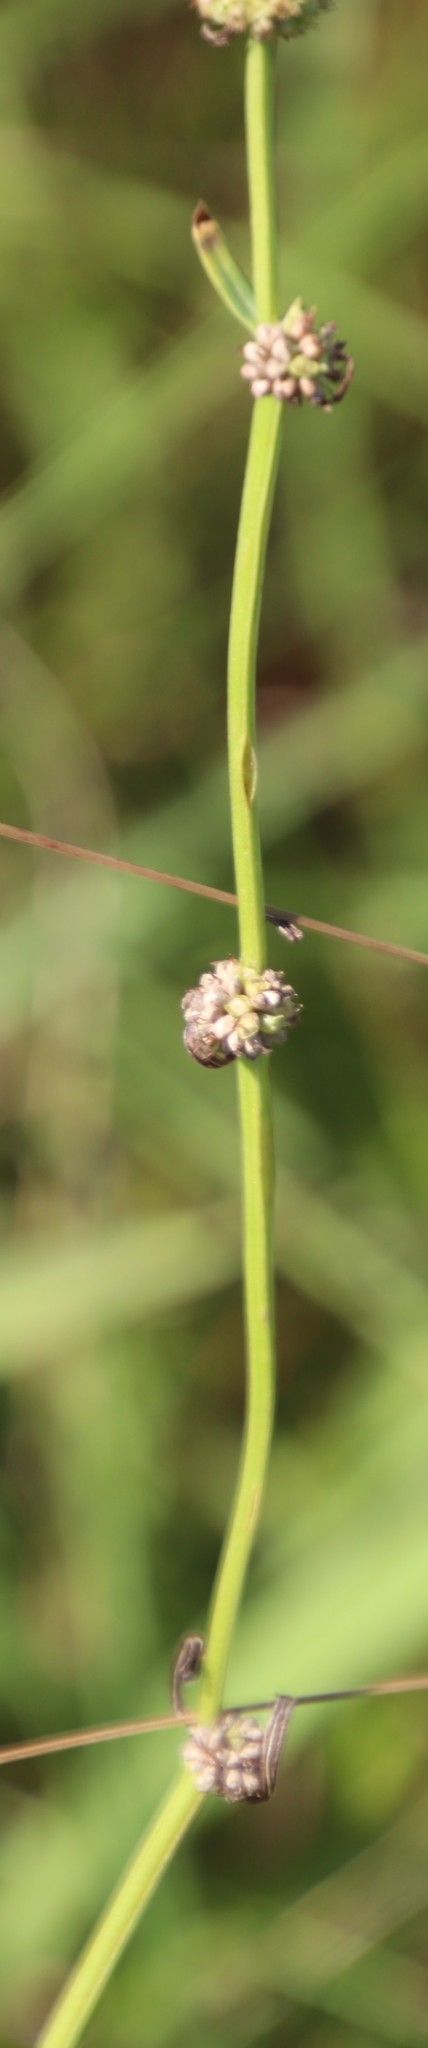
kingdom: Plantae
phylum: Tracheophyta
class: Magnoliopsida
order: Gentianales
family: Rubiaceae
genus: Spermacoce
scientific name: Spermacoce natalensis
